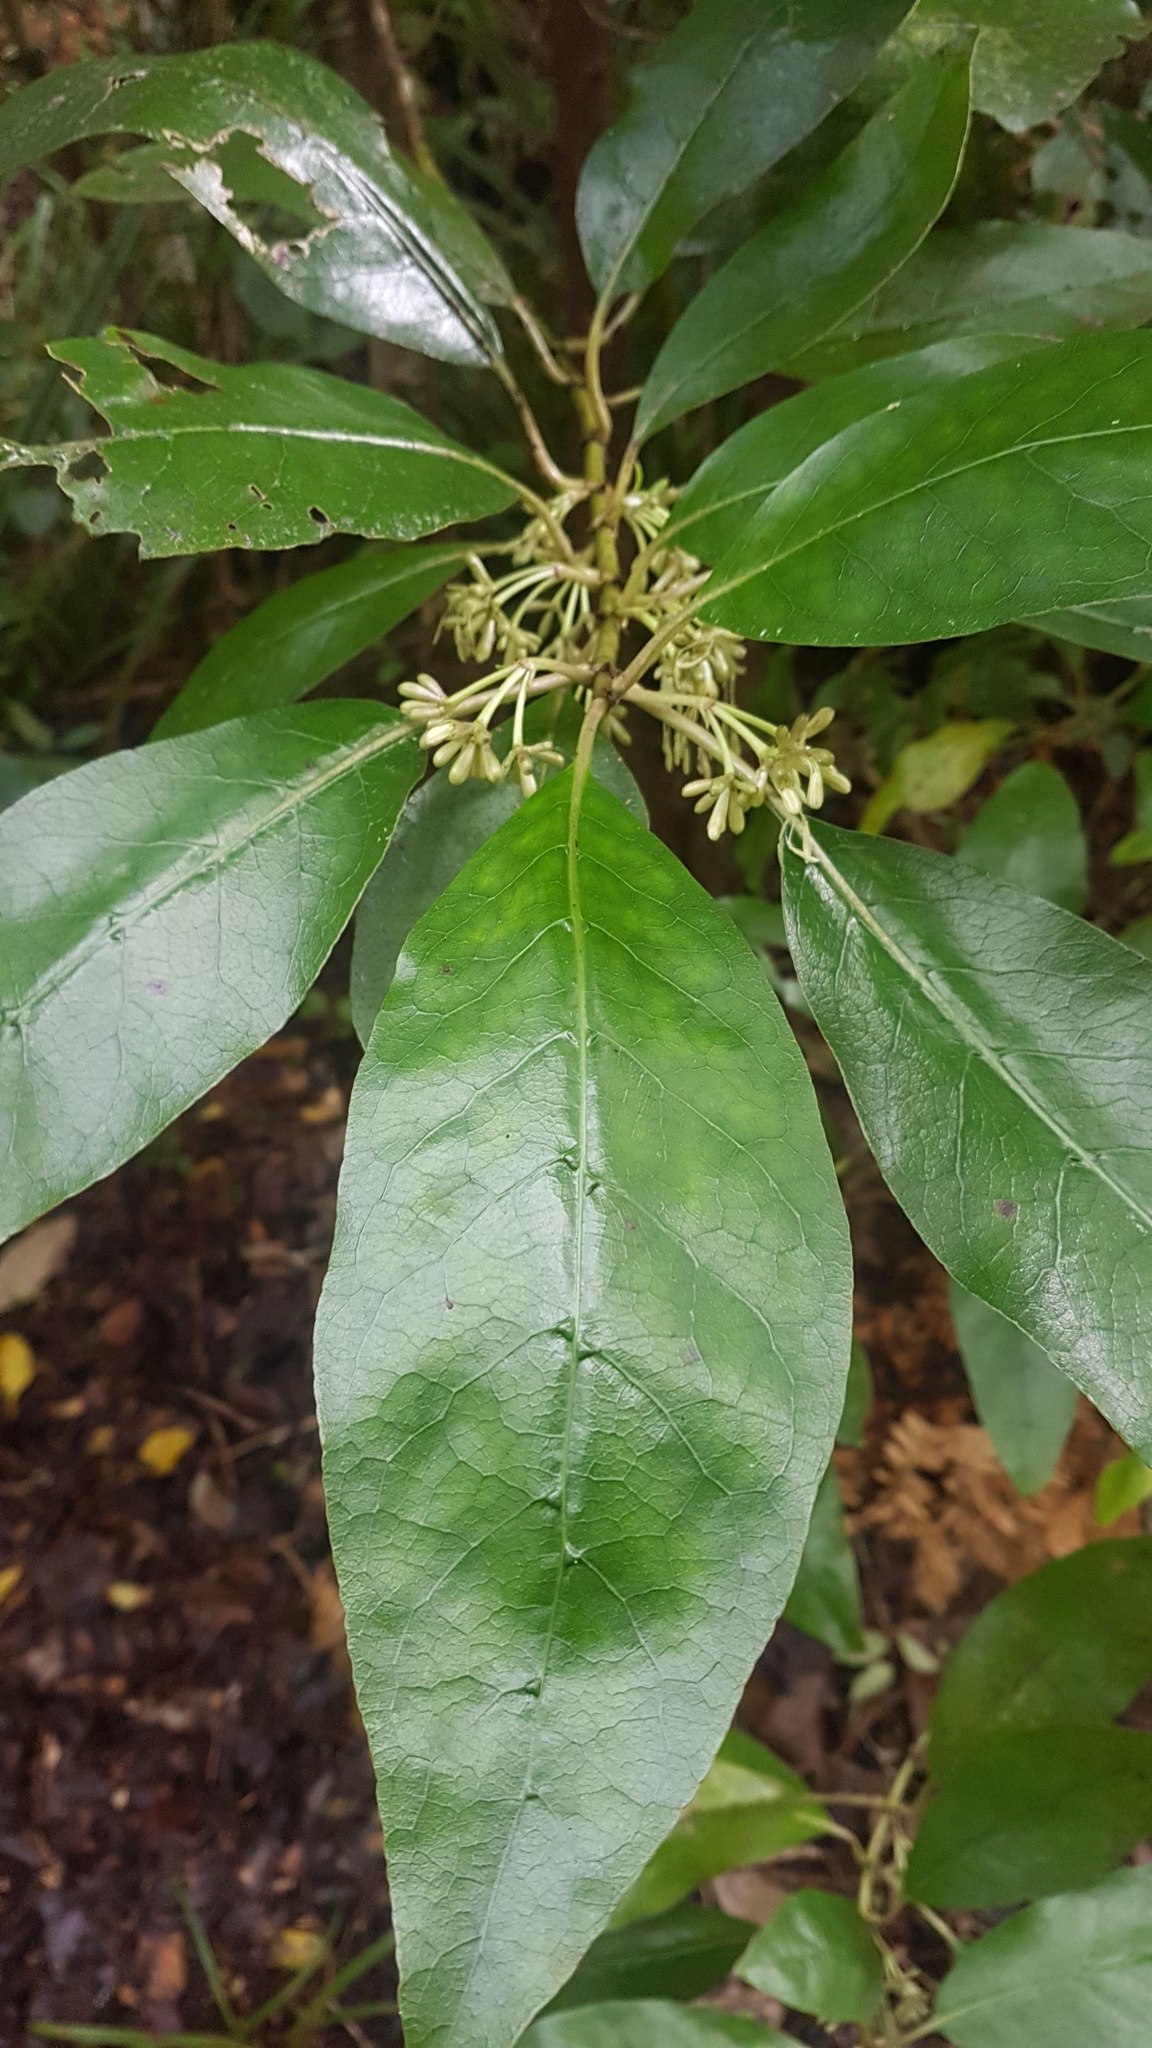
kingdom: Plantae
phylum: Tracheophyta
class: Magnoliopsida
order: Gentianales
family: Rubiaceae
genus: Coprosma
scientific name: Coprosma autumnalis
